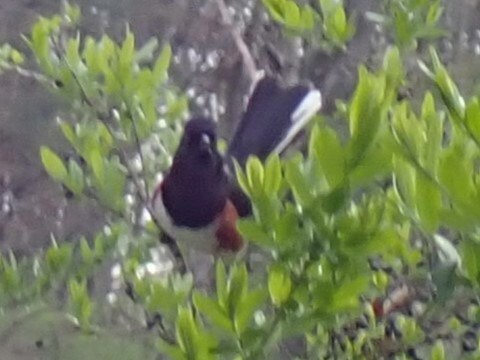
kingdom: Animalia
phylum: Chordata
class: Aves
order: Passeriformes
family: Passerellidae
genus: Pipilo
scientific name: Pipilo erythrophthalmus
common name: Eastern towhee
